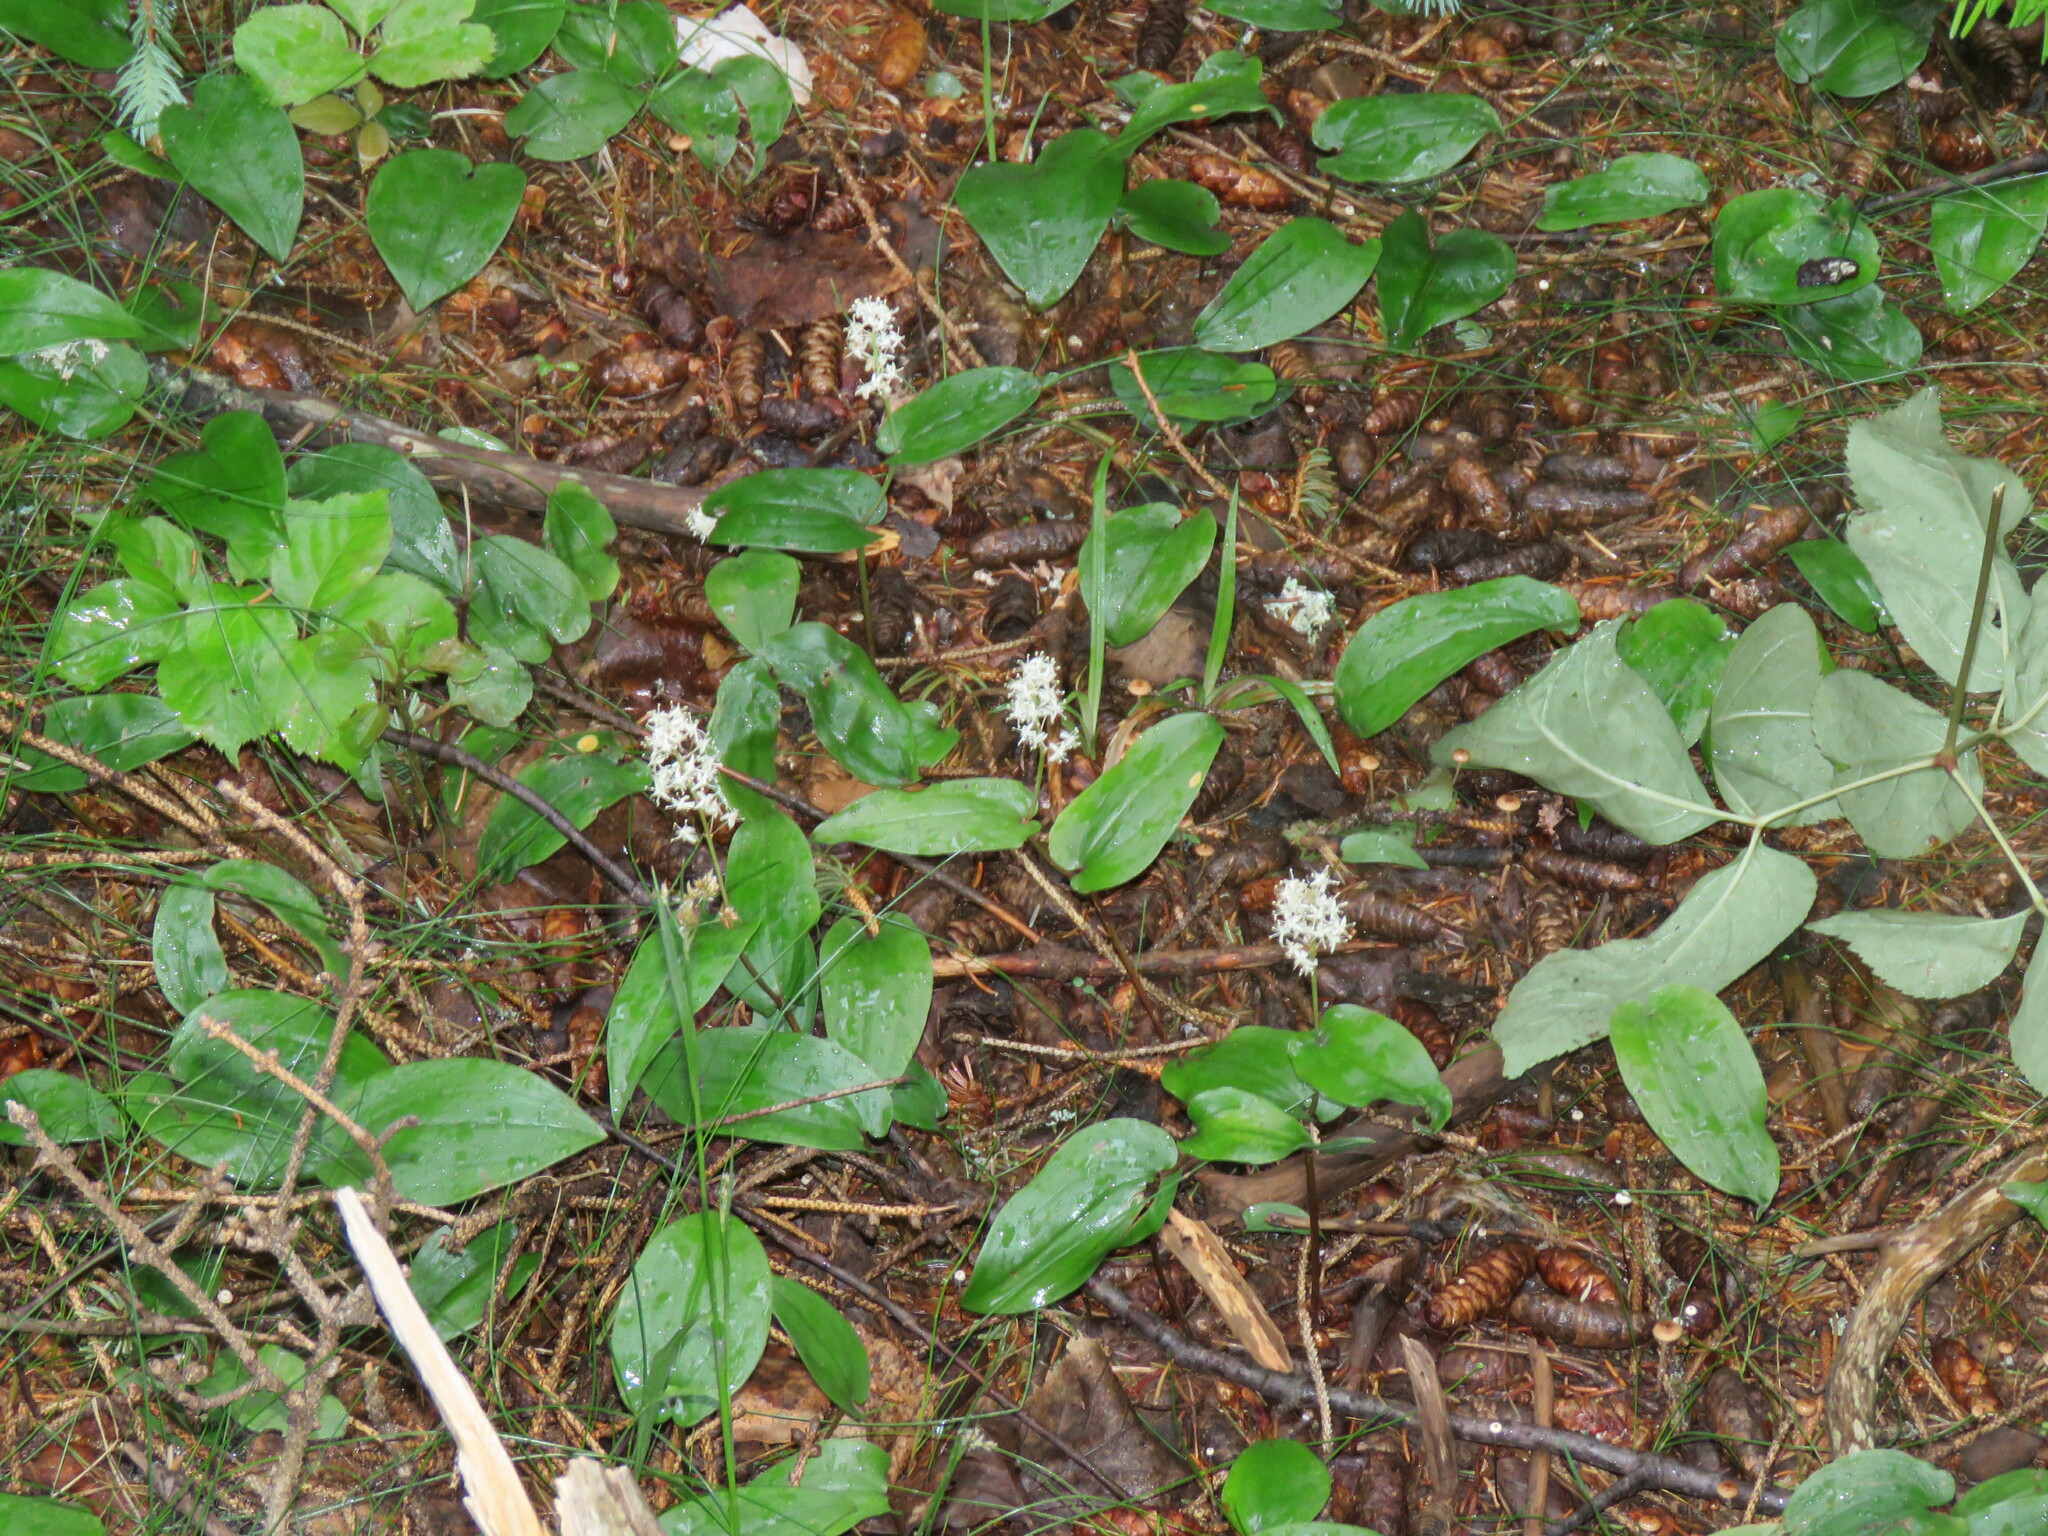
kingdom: Plantae
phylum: Tracheophyta
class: Liliopsida
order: Asparagales
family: Asparagaceae
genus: Maianthemum
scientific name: Maianthemum canadense
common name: False lily-of-the-valley
